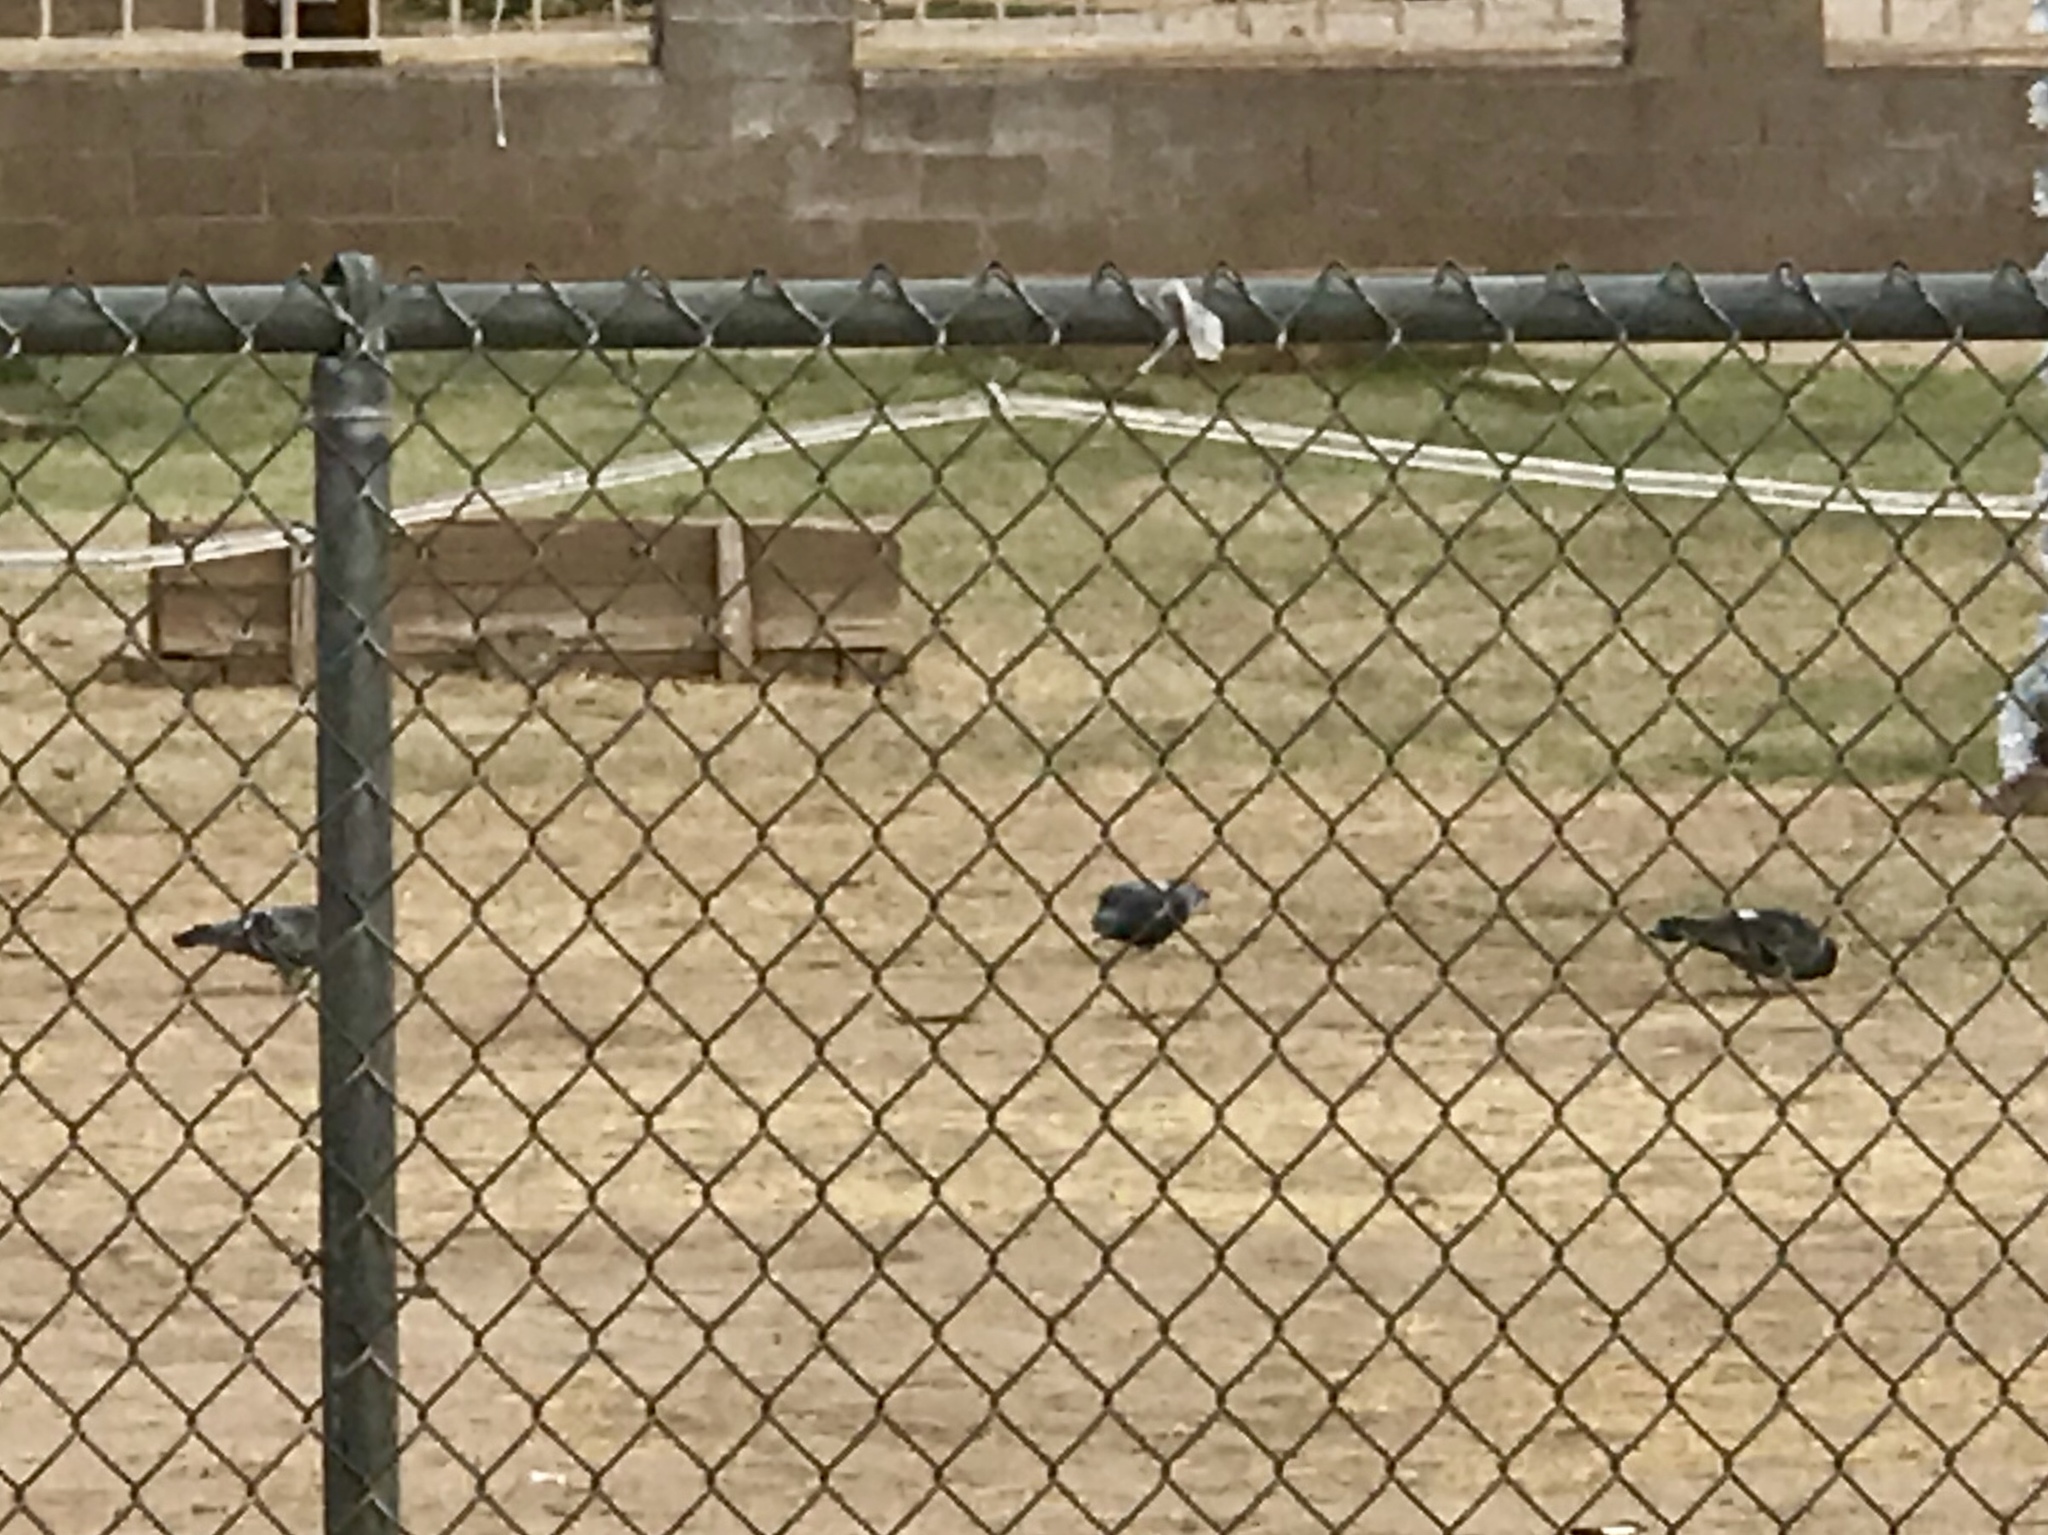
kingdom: Animalia
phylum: Chordata
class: Aves
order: Columbiformes
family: Columbidae
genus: Columba
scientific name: Columba livia
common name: Rock pigeon
